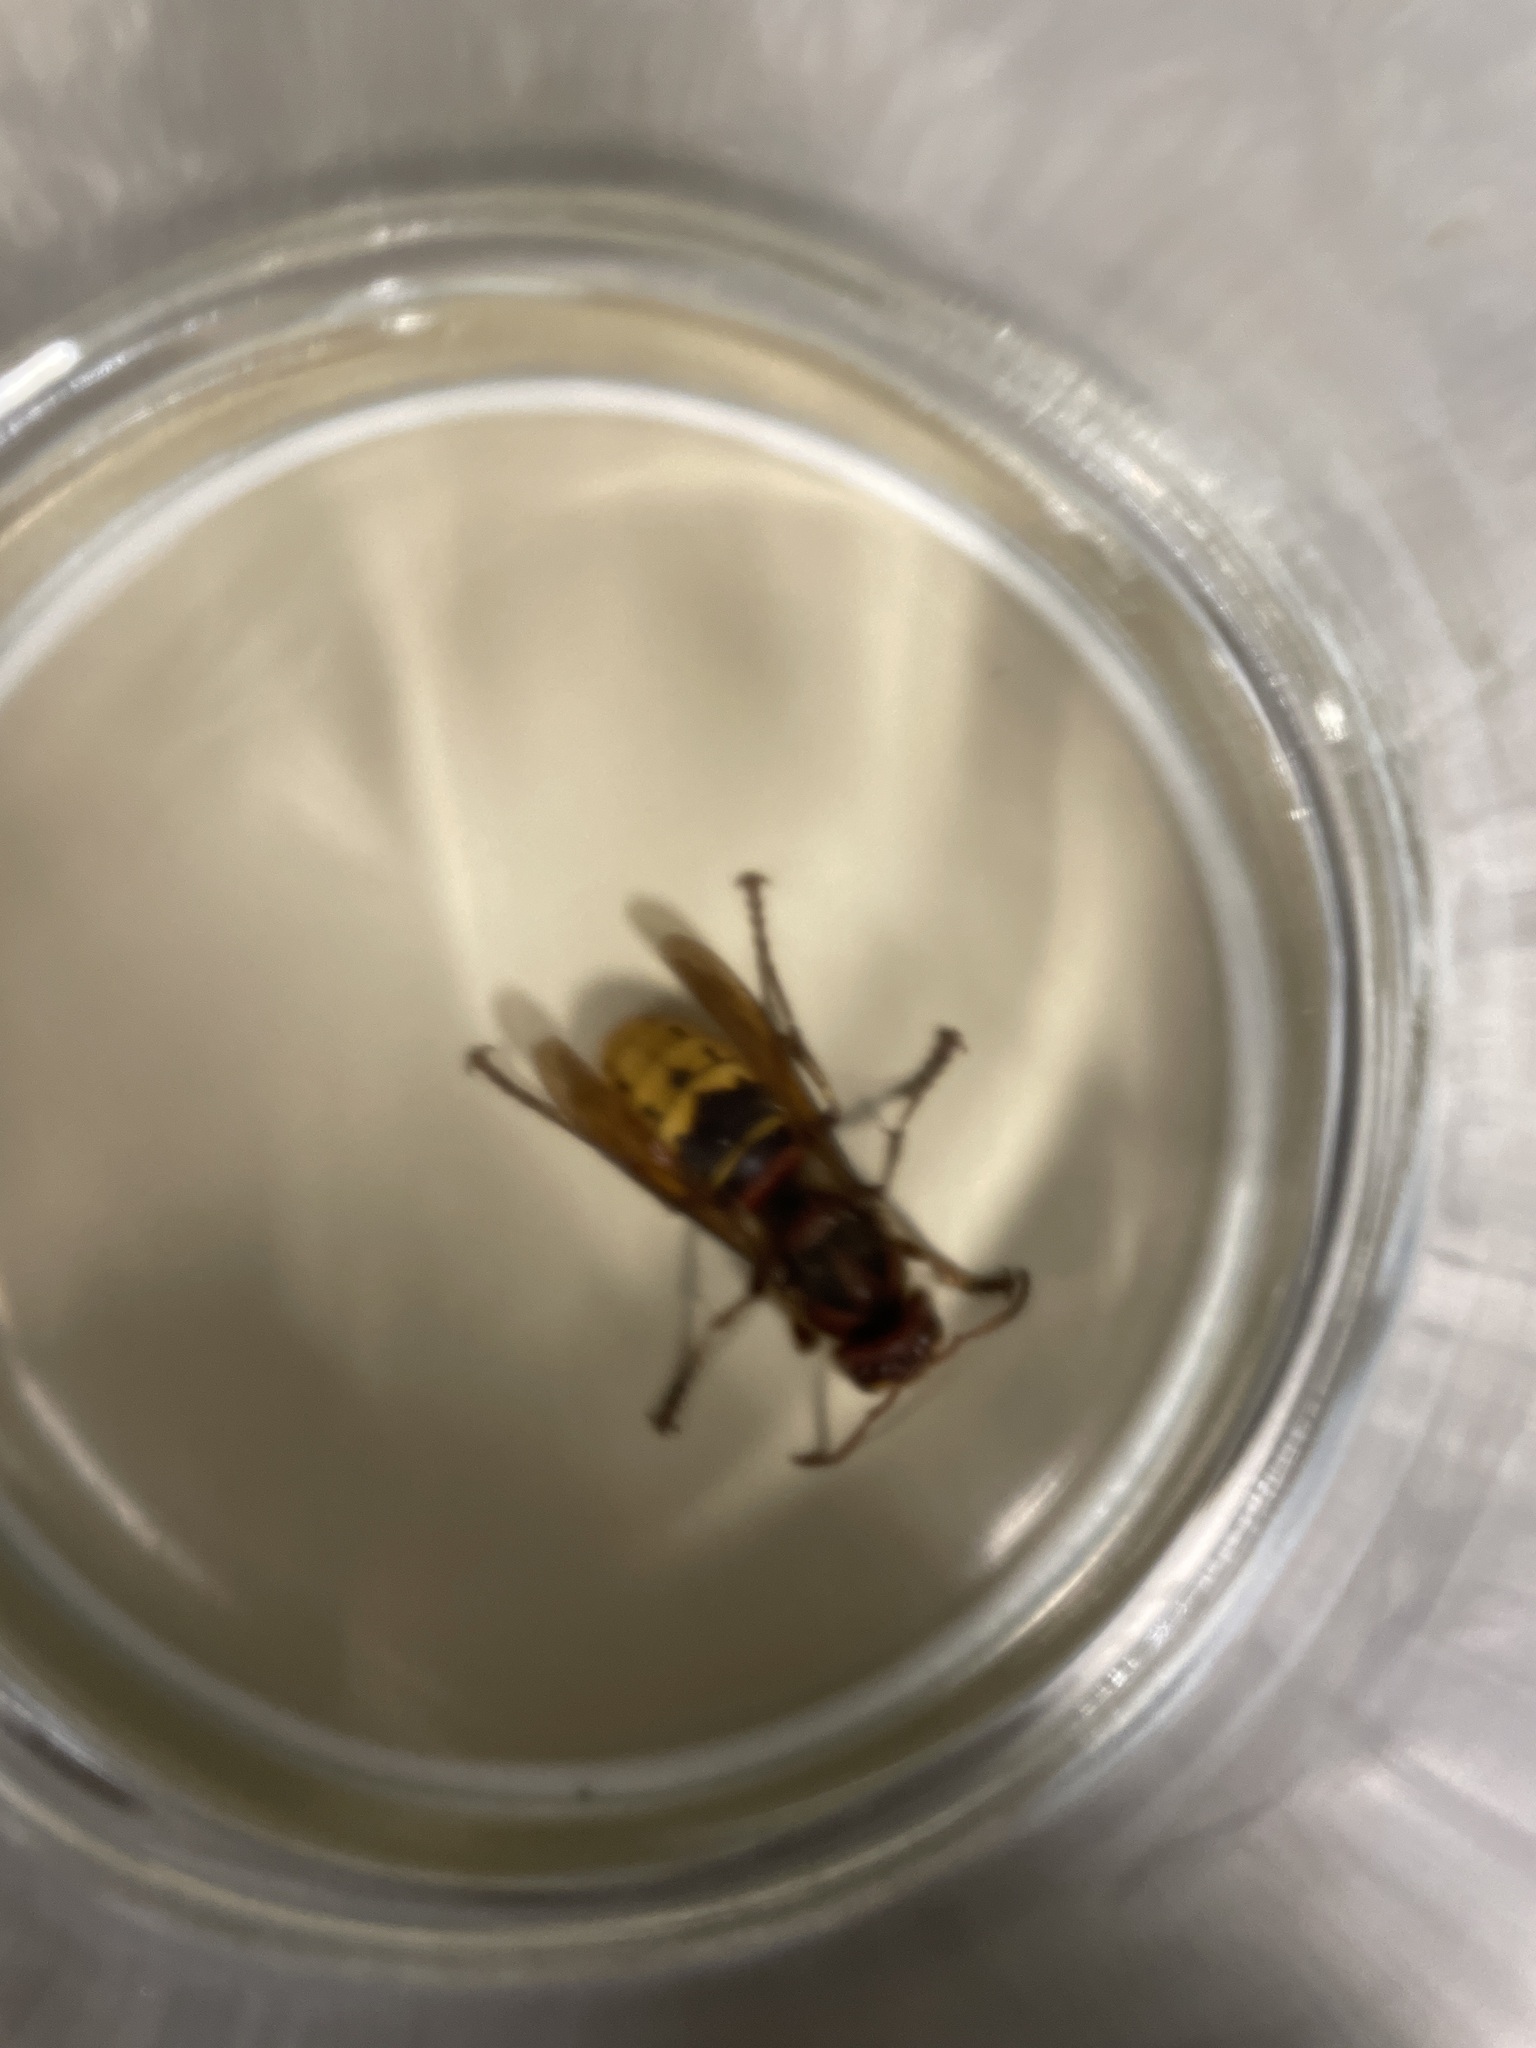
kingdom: Animalia
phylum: Arthropoda
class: Insecta
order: Hymenoptera
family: Vespidae
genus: Vespa
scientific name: Vespa crabro
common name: Hornet
